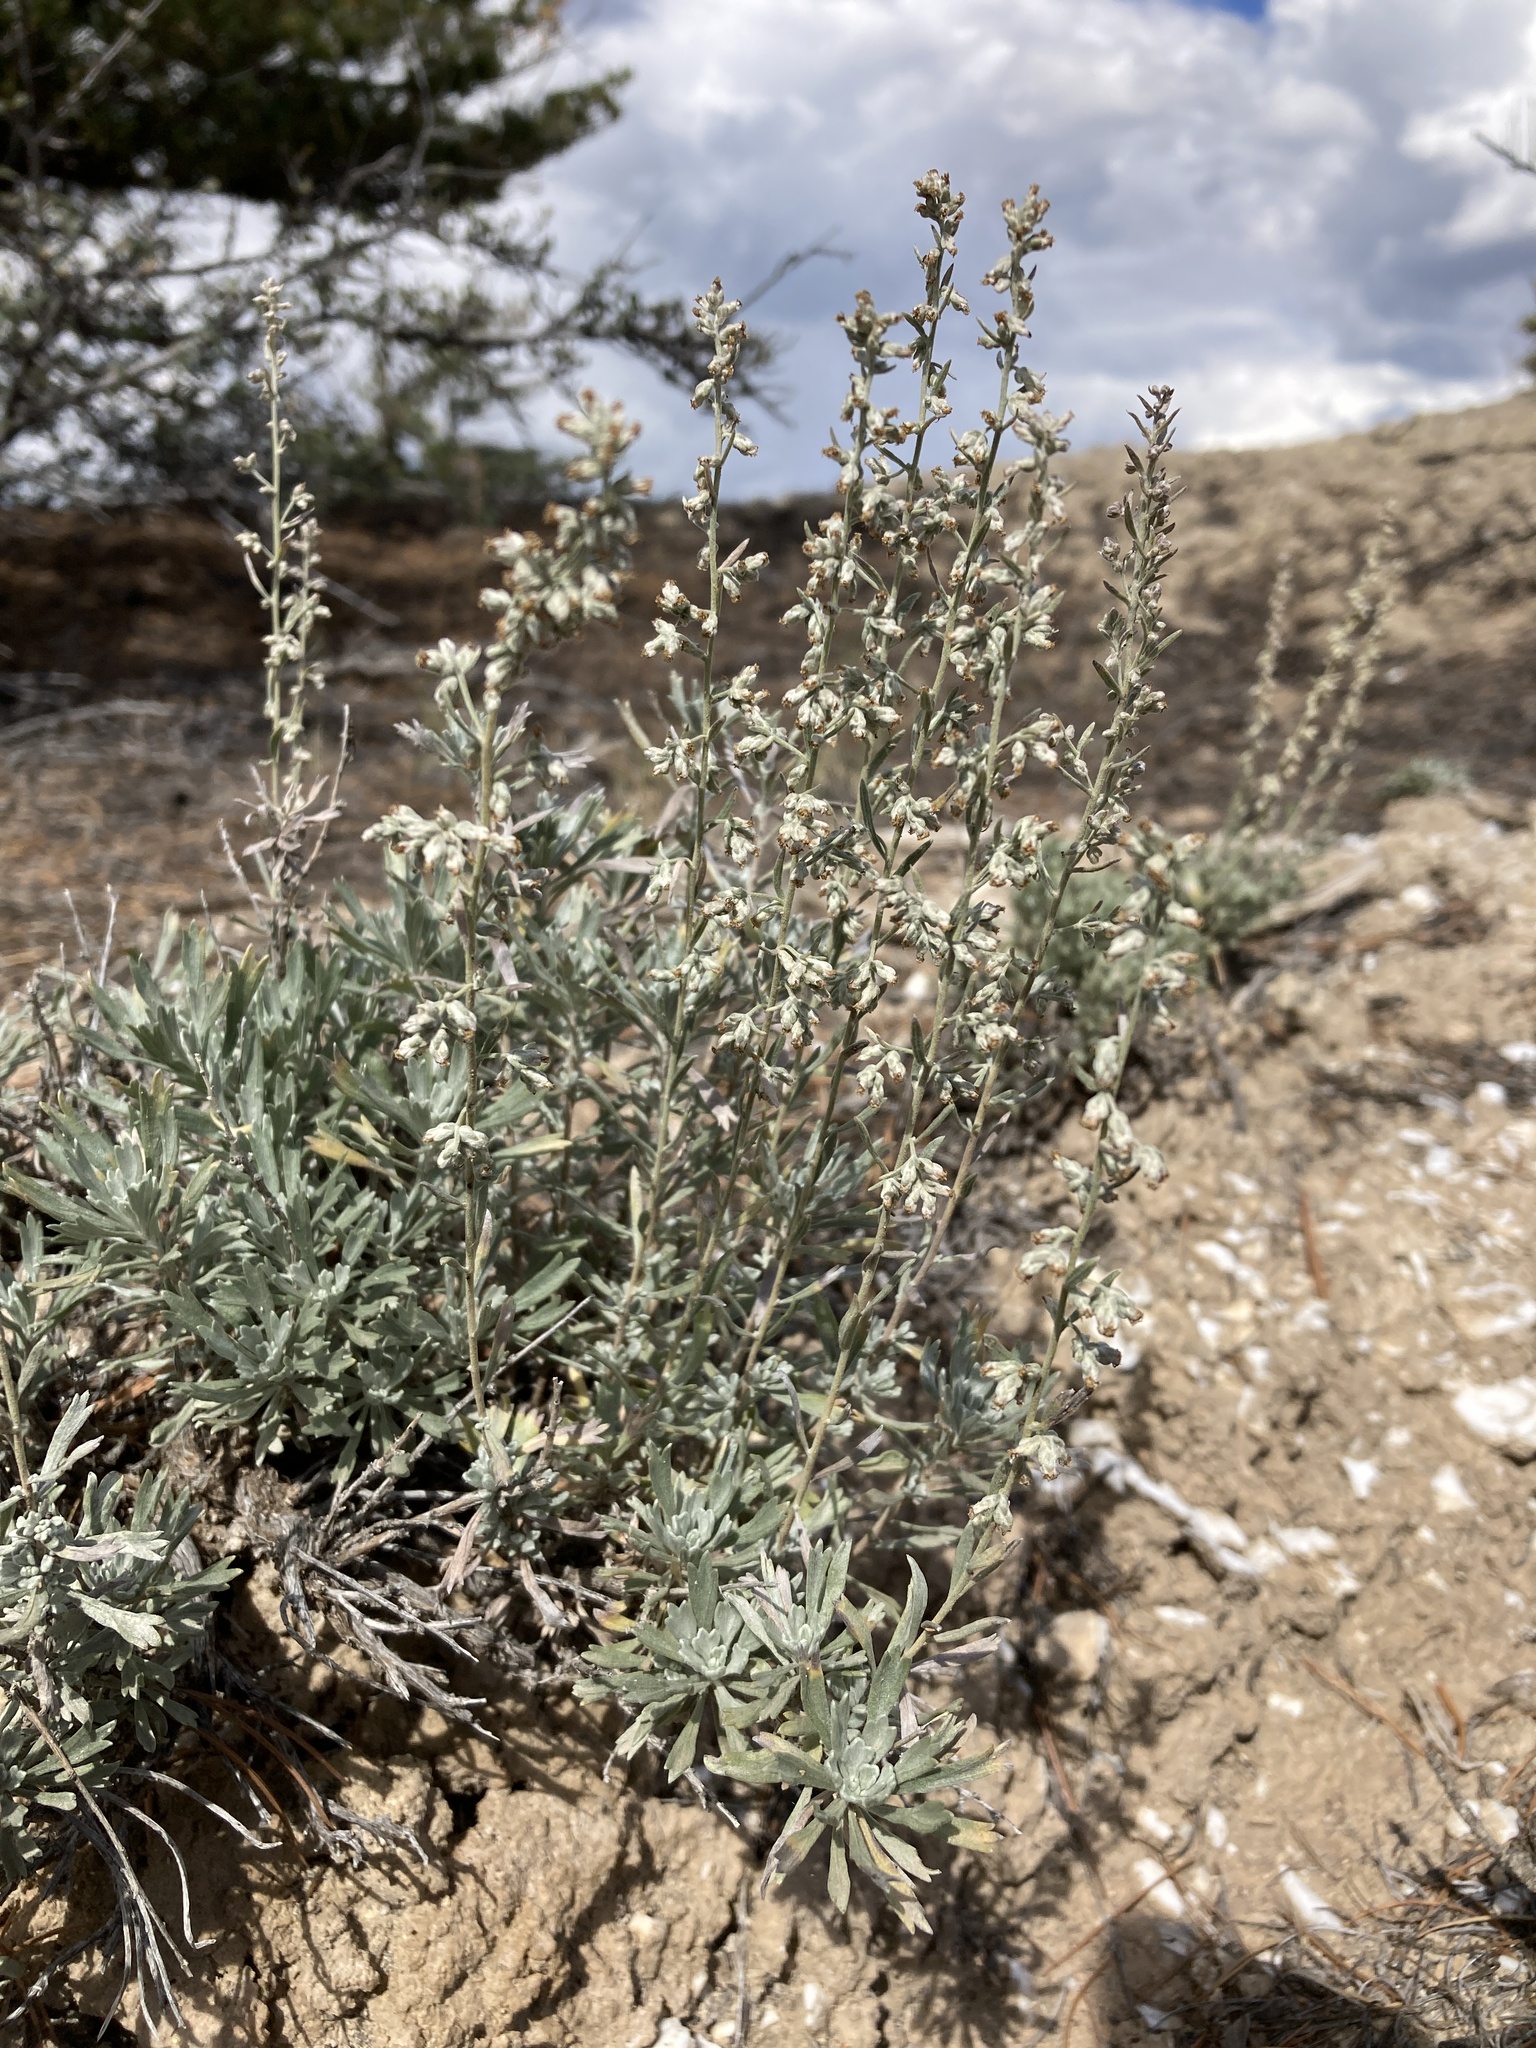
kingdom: Plantae
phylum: Tracheophyta
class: Magnoliopsida
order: Asterales
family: Asteraceae
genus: Artemisia
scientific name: Artemisia bigelovii
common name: Bigelow sagebrush
